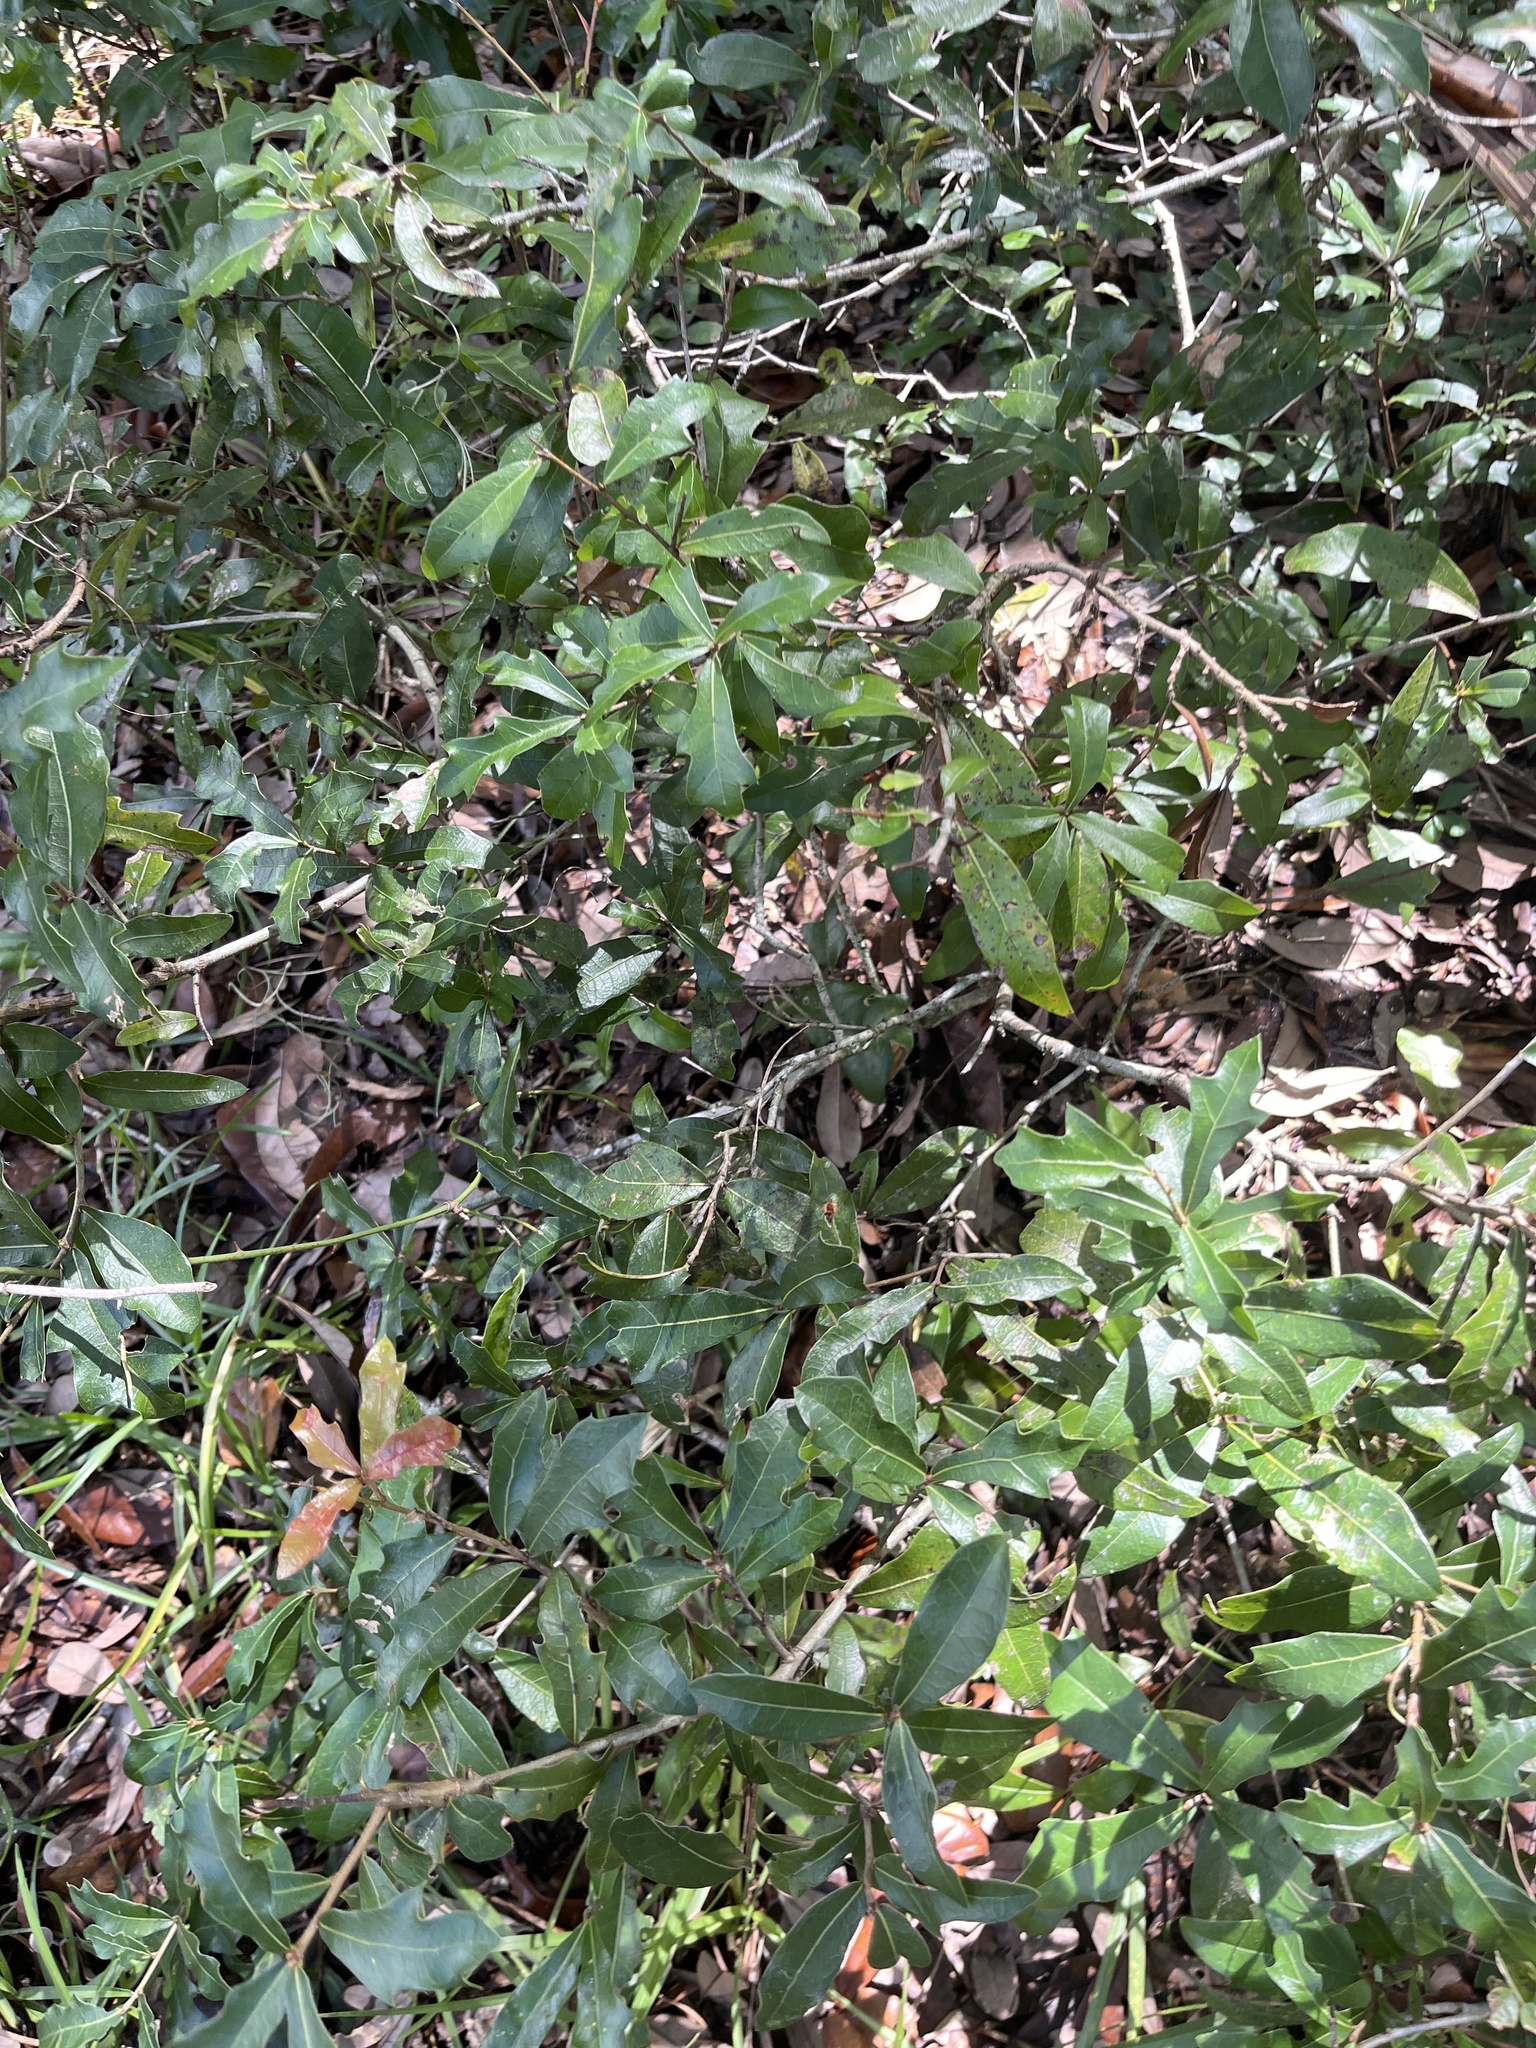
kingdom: Plantae
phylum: Tracheophyta
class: Magnoliopsida
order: Fagales
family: Fagaceae
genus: Quercus
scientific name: Quercus hemisphaerica
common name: Darlington oak
